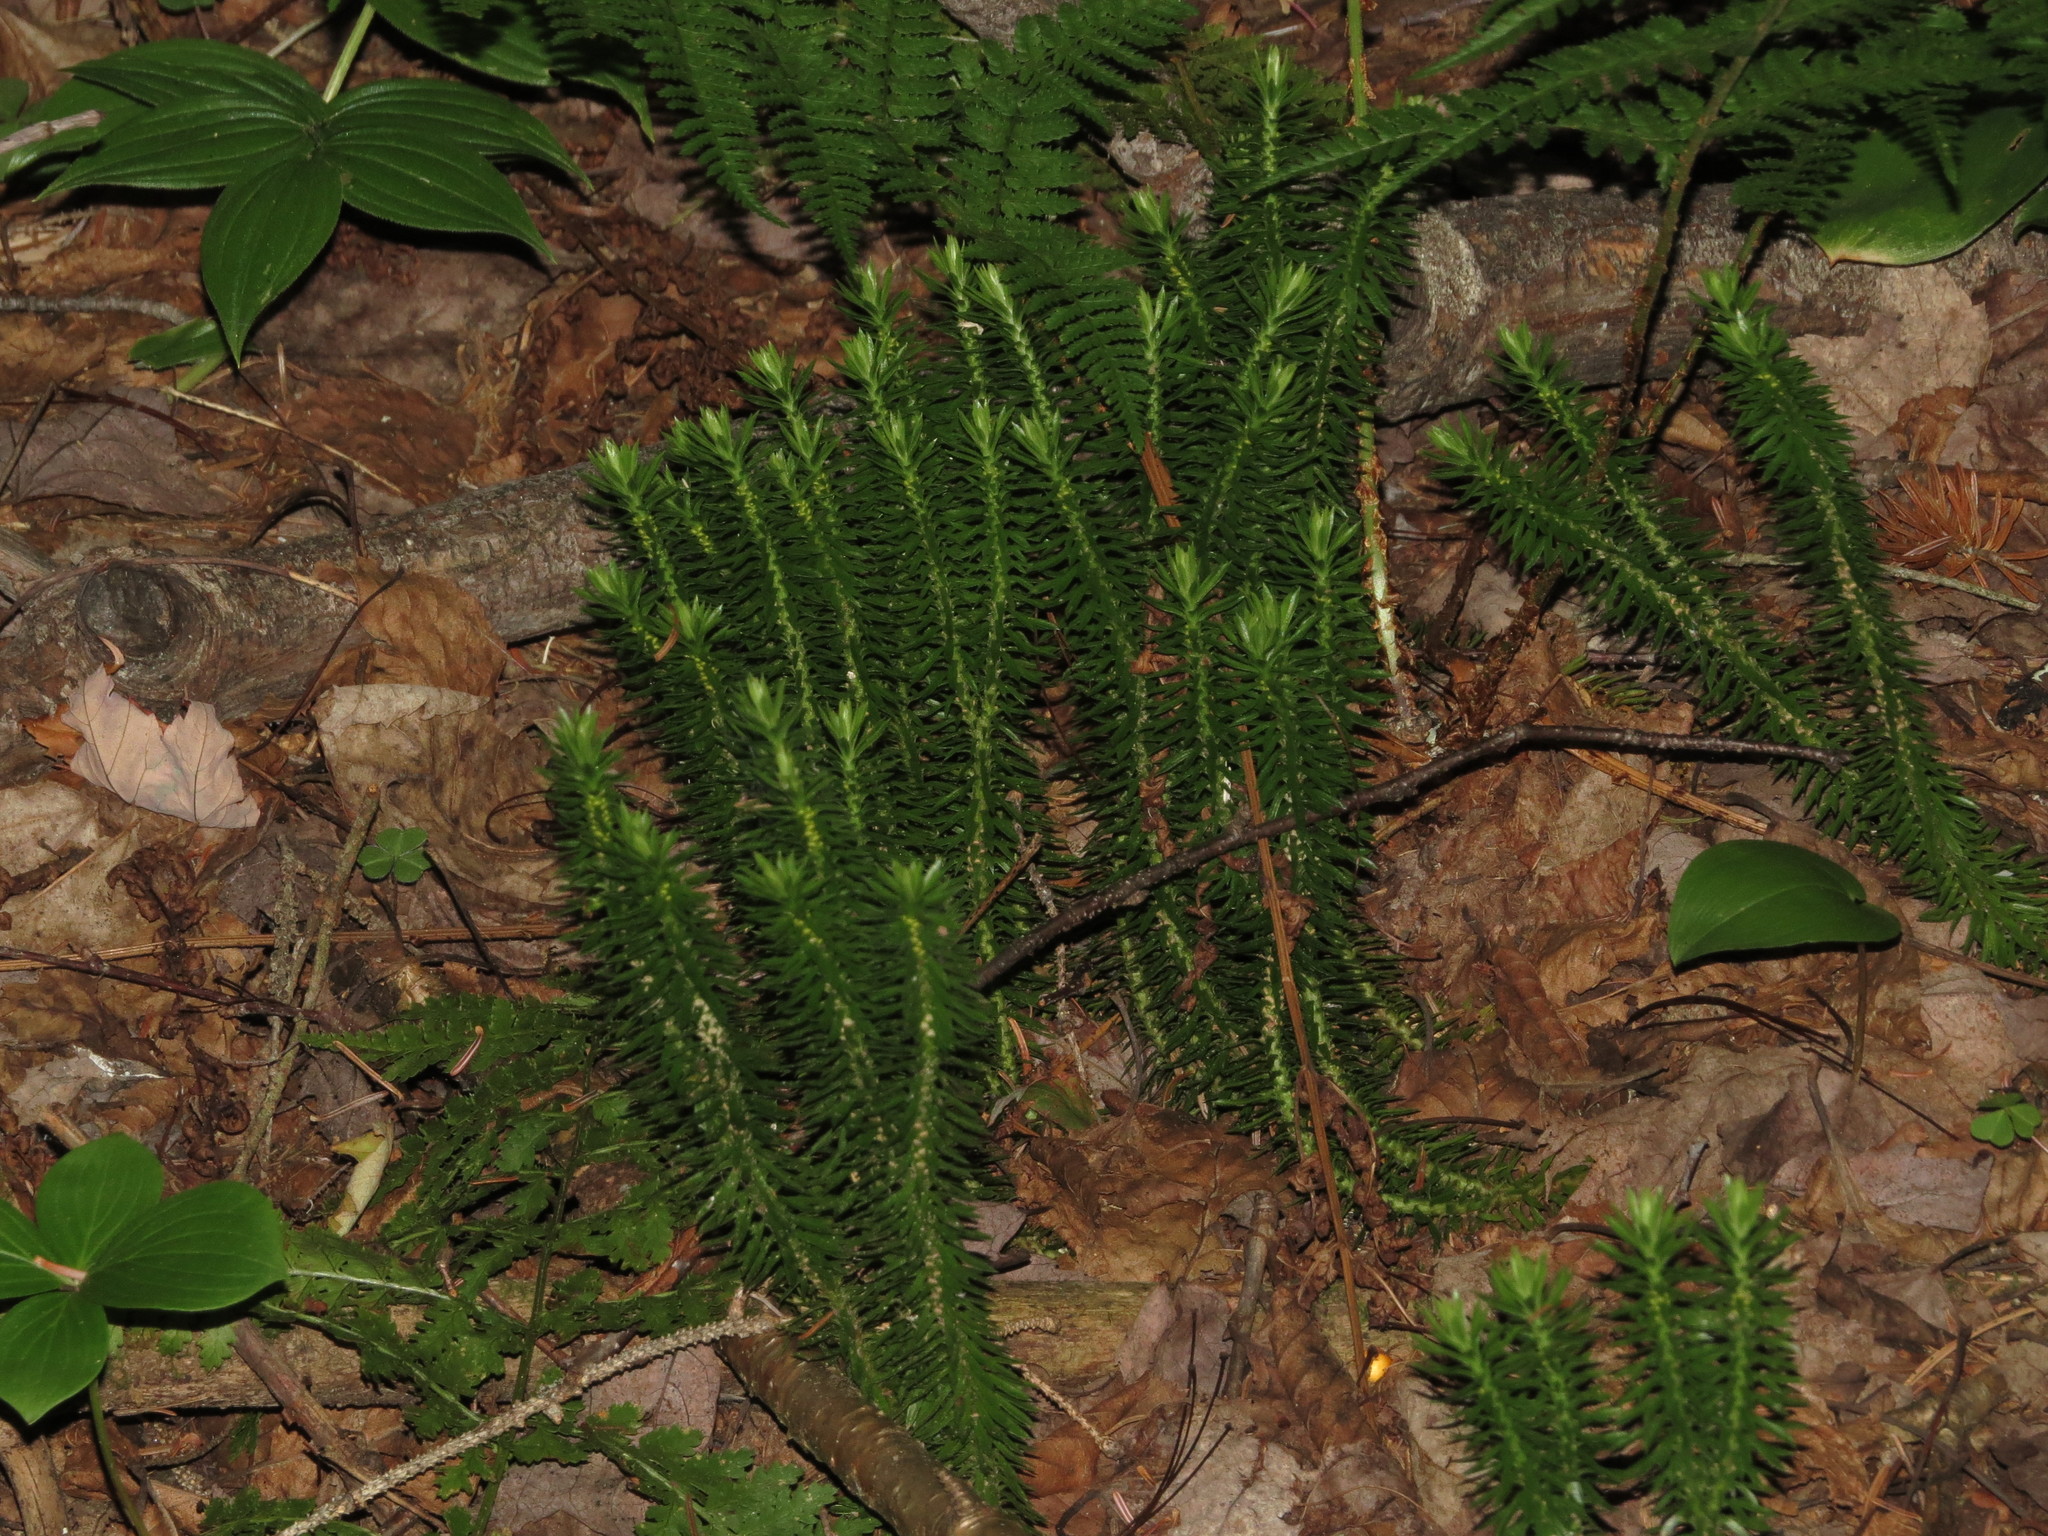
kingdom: Plantae
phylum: Tracheophyta
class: Lycopodiopsida
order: Lycopodiales
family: Lycopodiaceae
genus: Huperzia
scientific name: Huperzia lucidula
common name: Shining clubmoss
